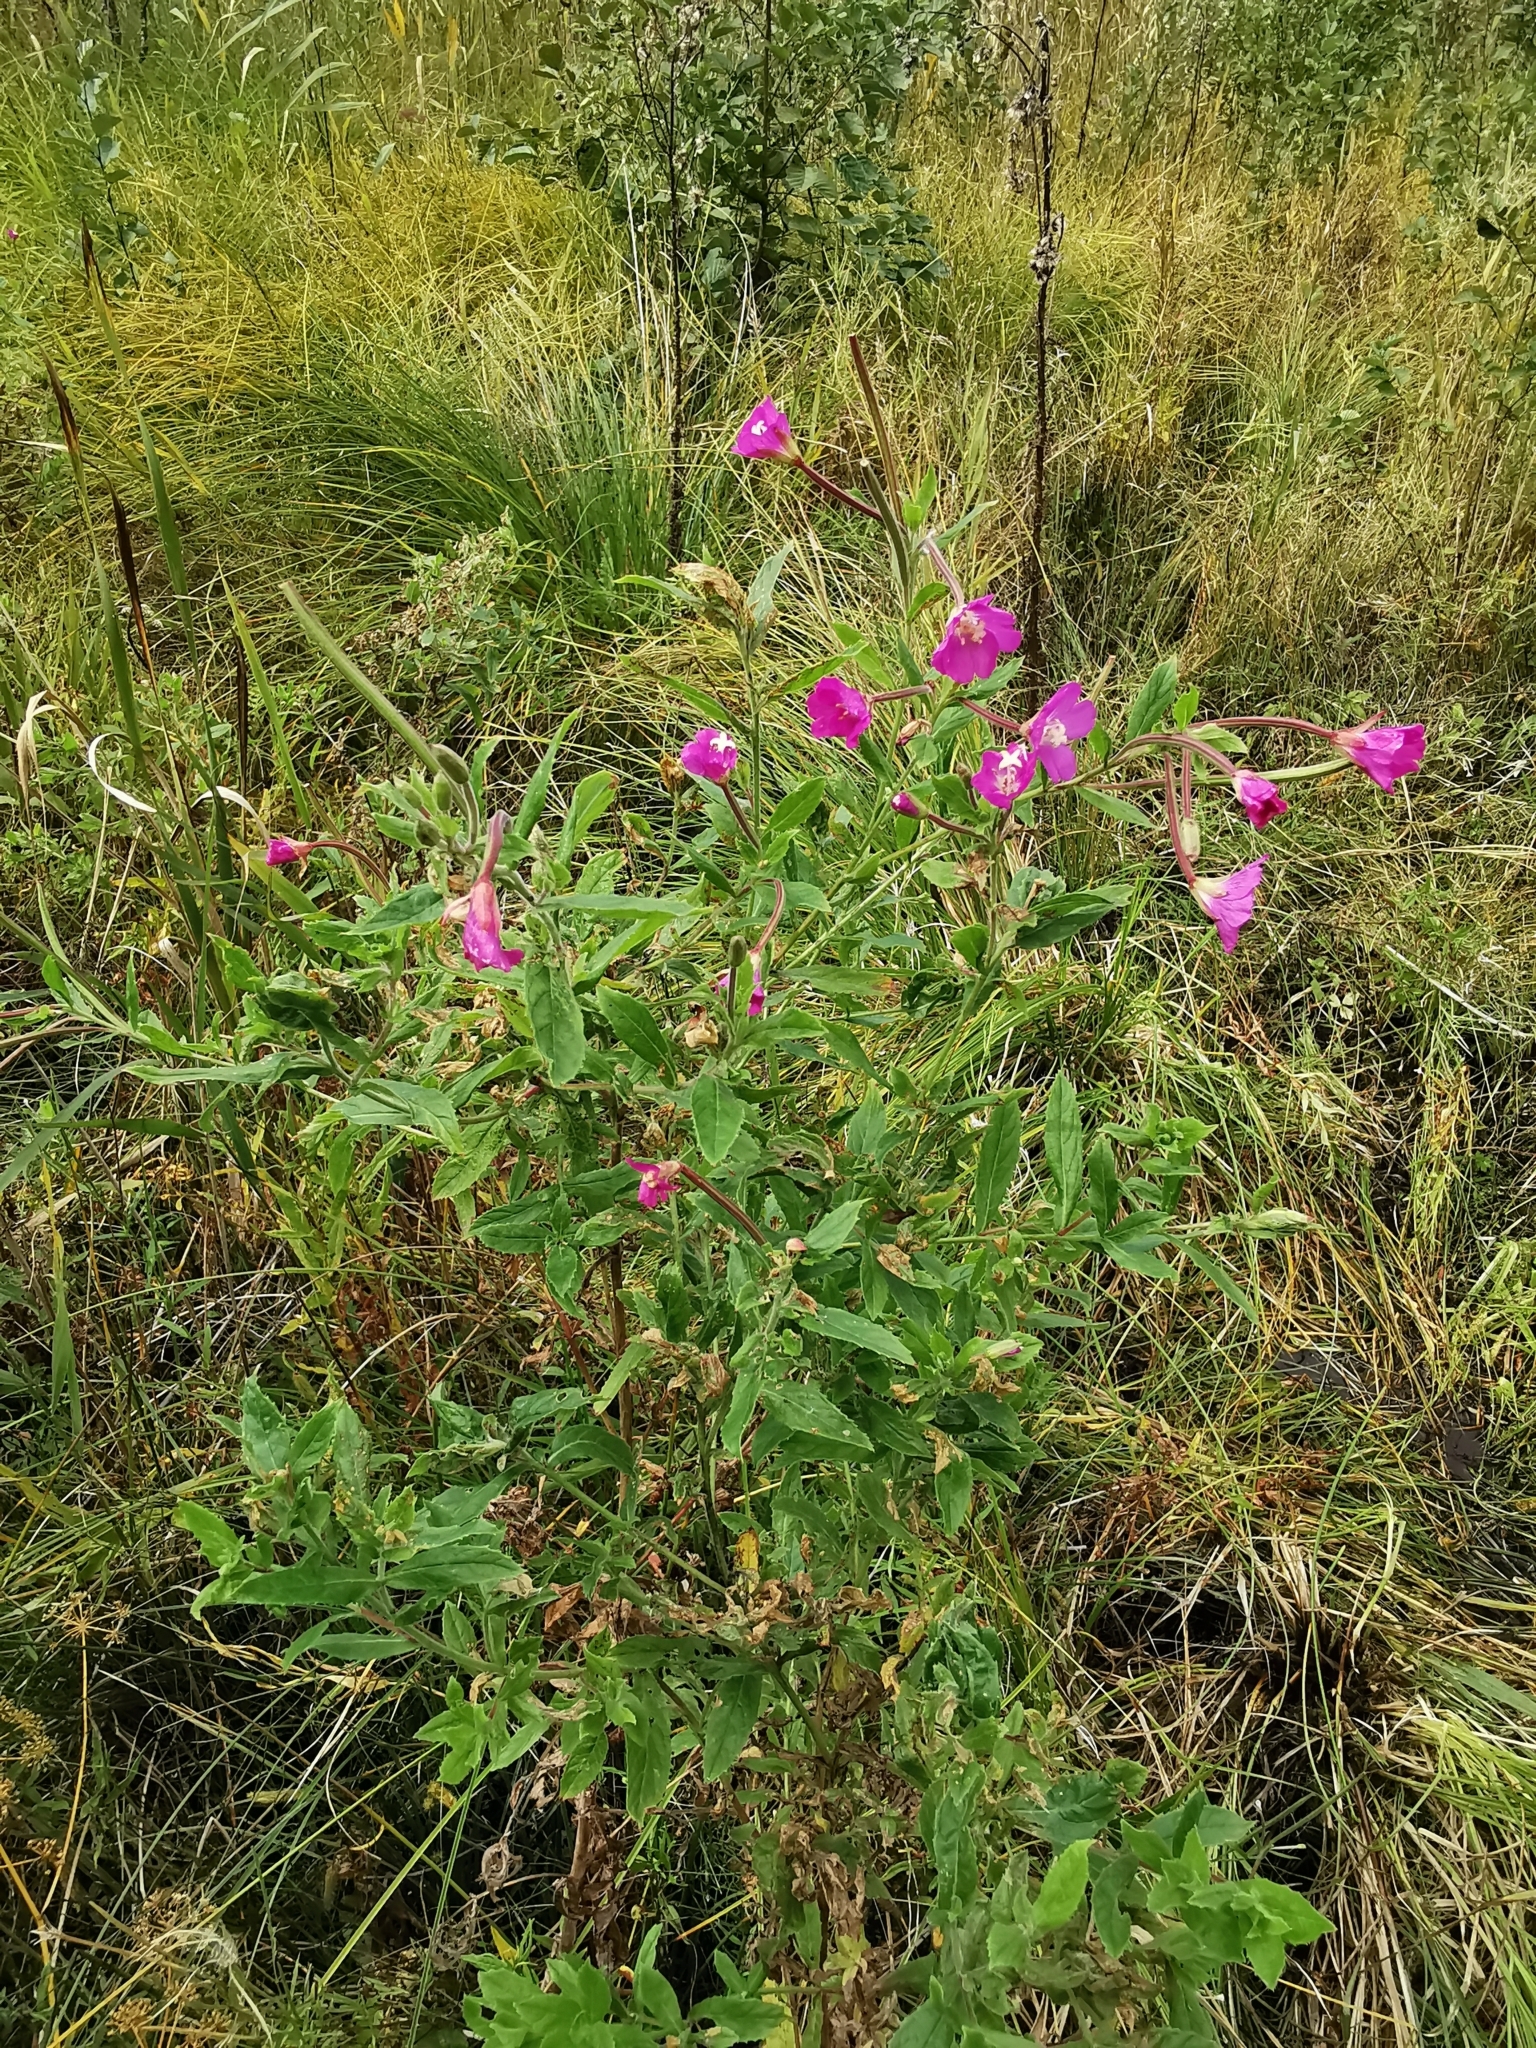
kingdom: Plantae
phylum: Tracheophyta
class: Magnoliopsida
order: Myrtales
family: Onagraceae
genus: Epilobium
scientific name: Epilobium hirsutum
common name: Great willowherb
